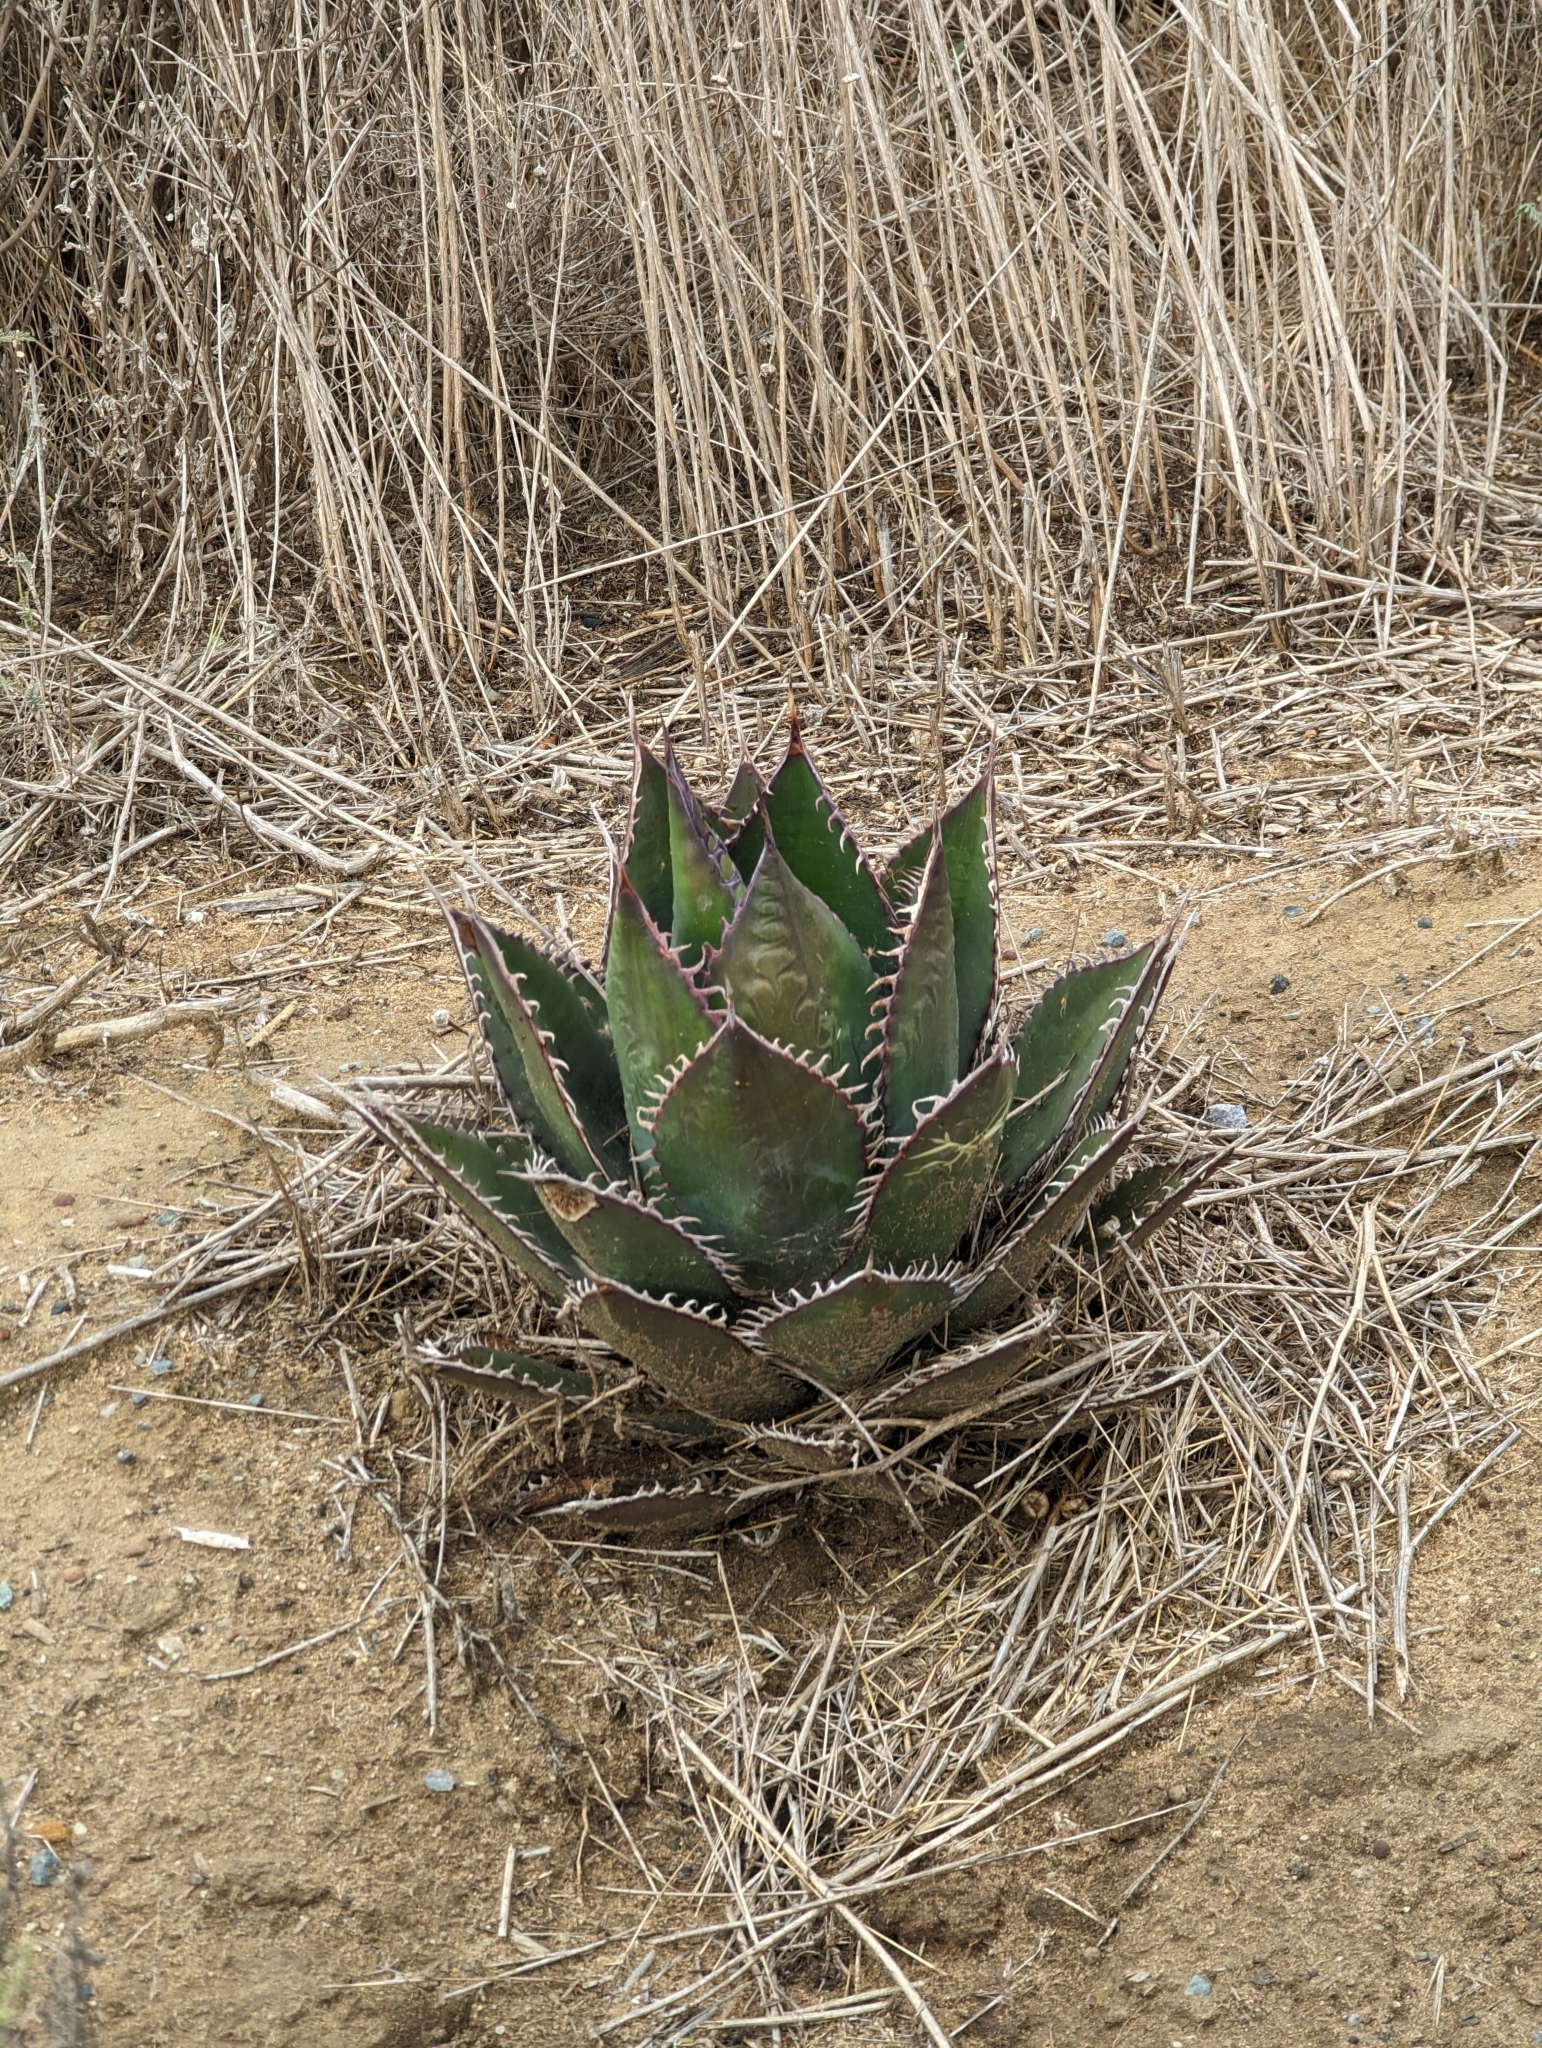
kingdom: Plantae
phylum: Tracheophyta
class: Liliopsida
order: Asparagales
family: Asparagaceae
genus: Agave
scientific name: Agave shawii
